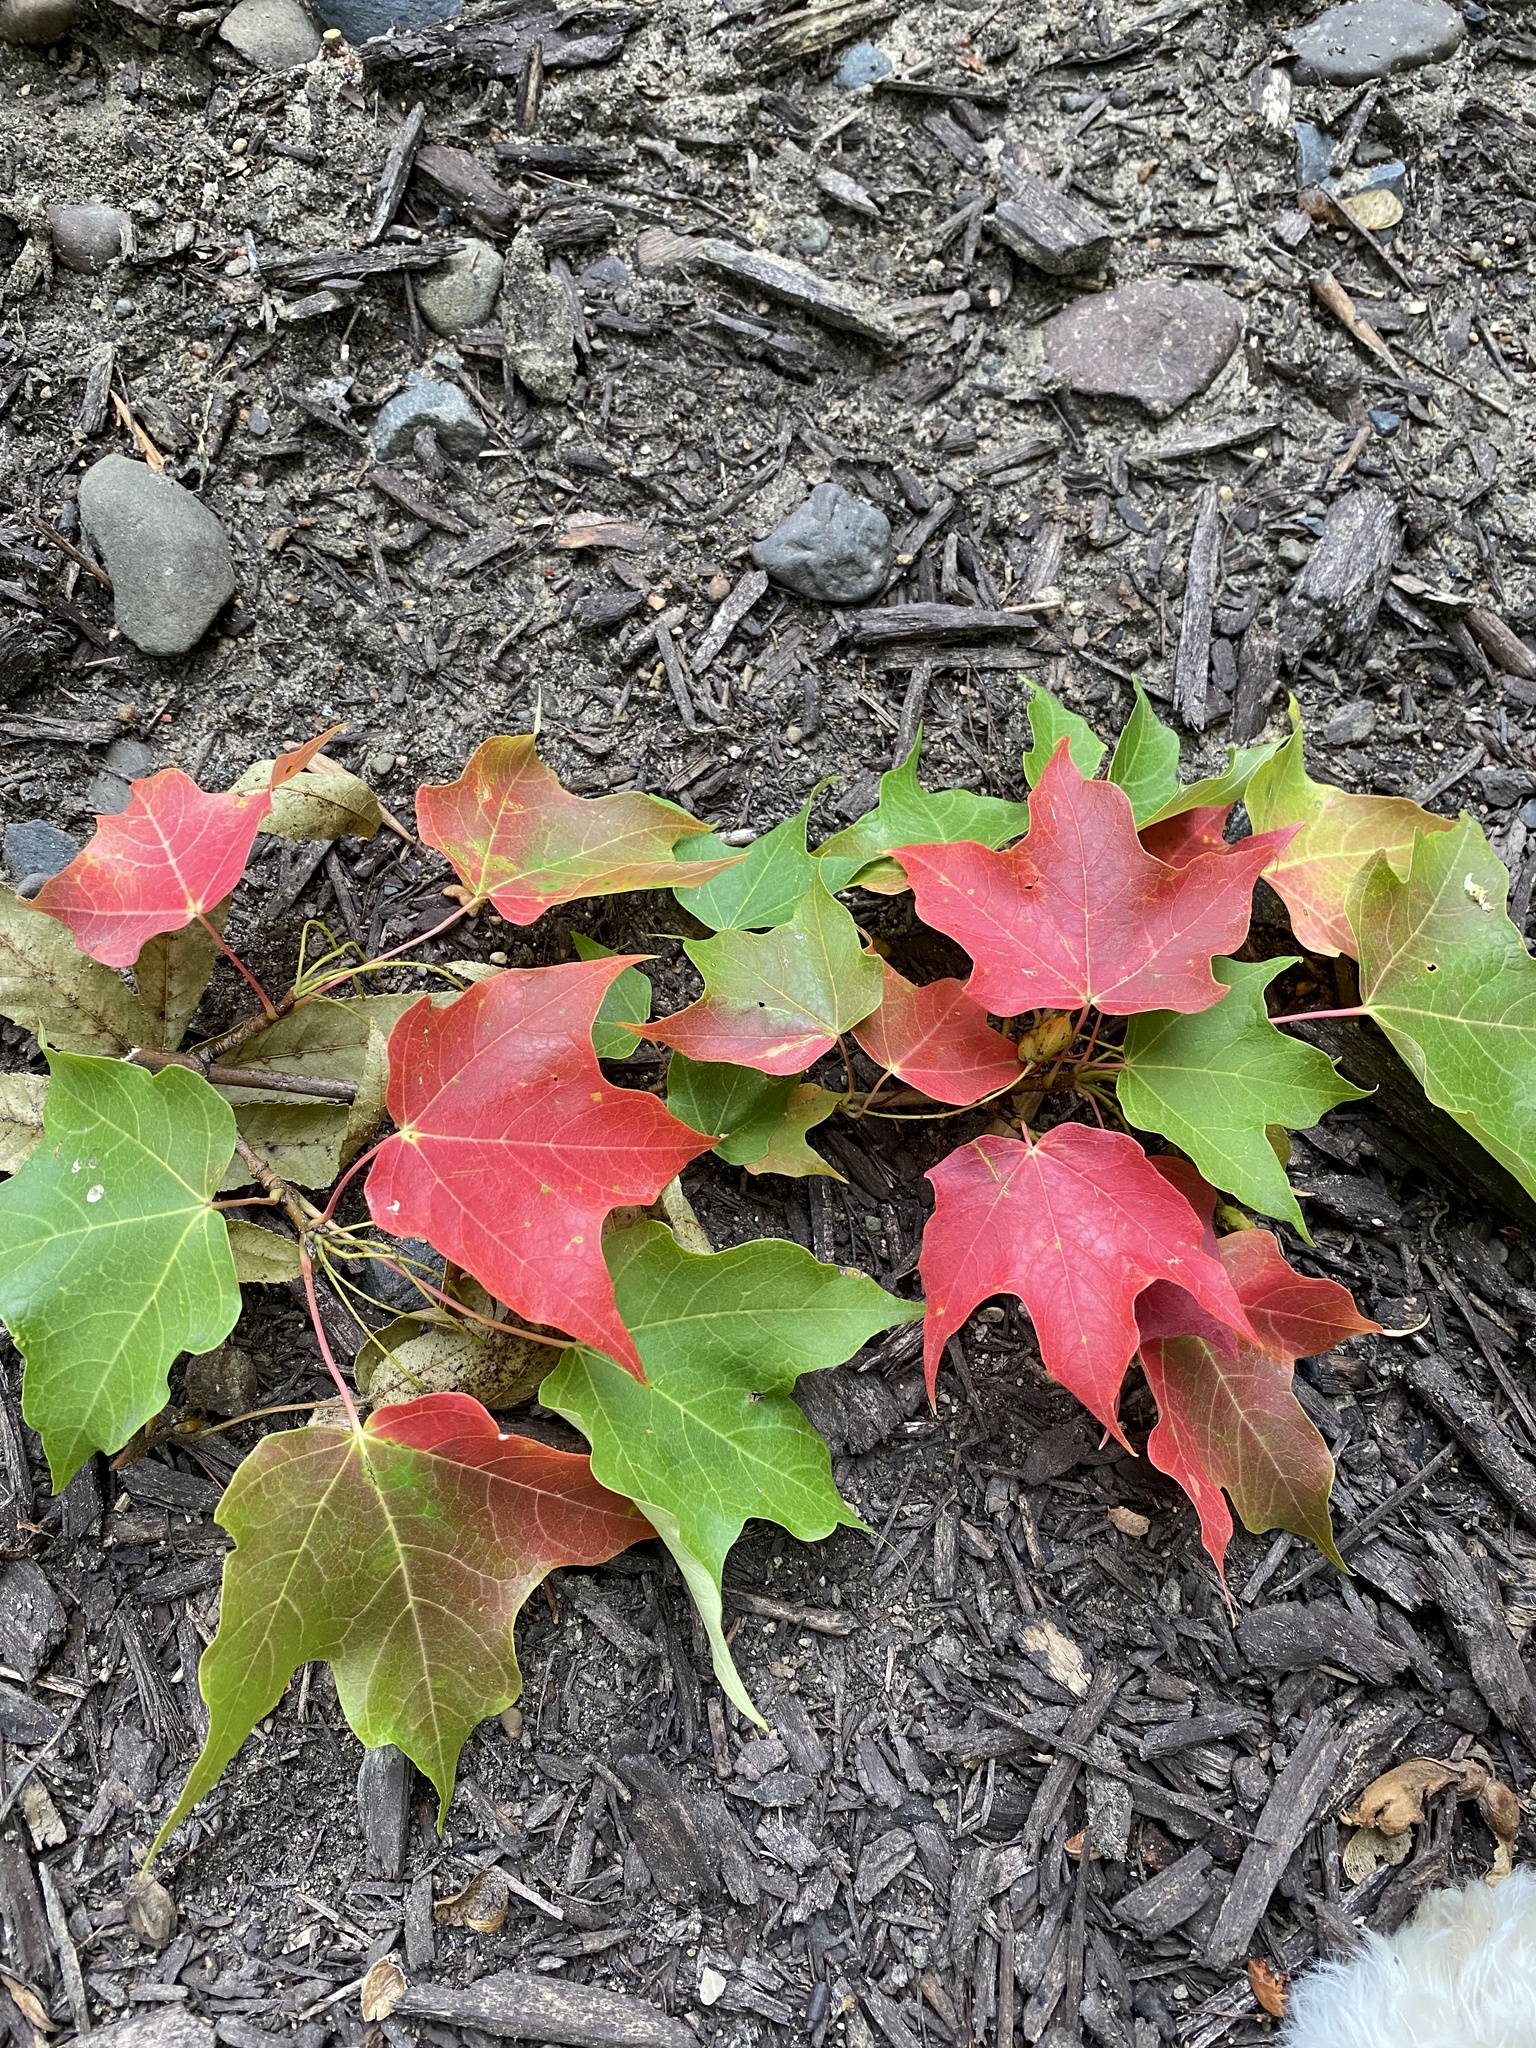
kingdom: Plantae
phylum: Tracheophyta
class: Magnoliopsida
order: Sapindales
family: Sapindaceae
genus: Acer
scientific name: Acer saccharum
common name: Sugar maple
